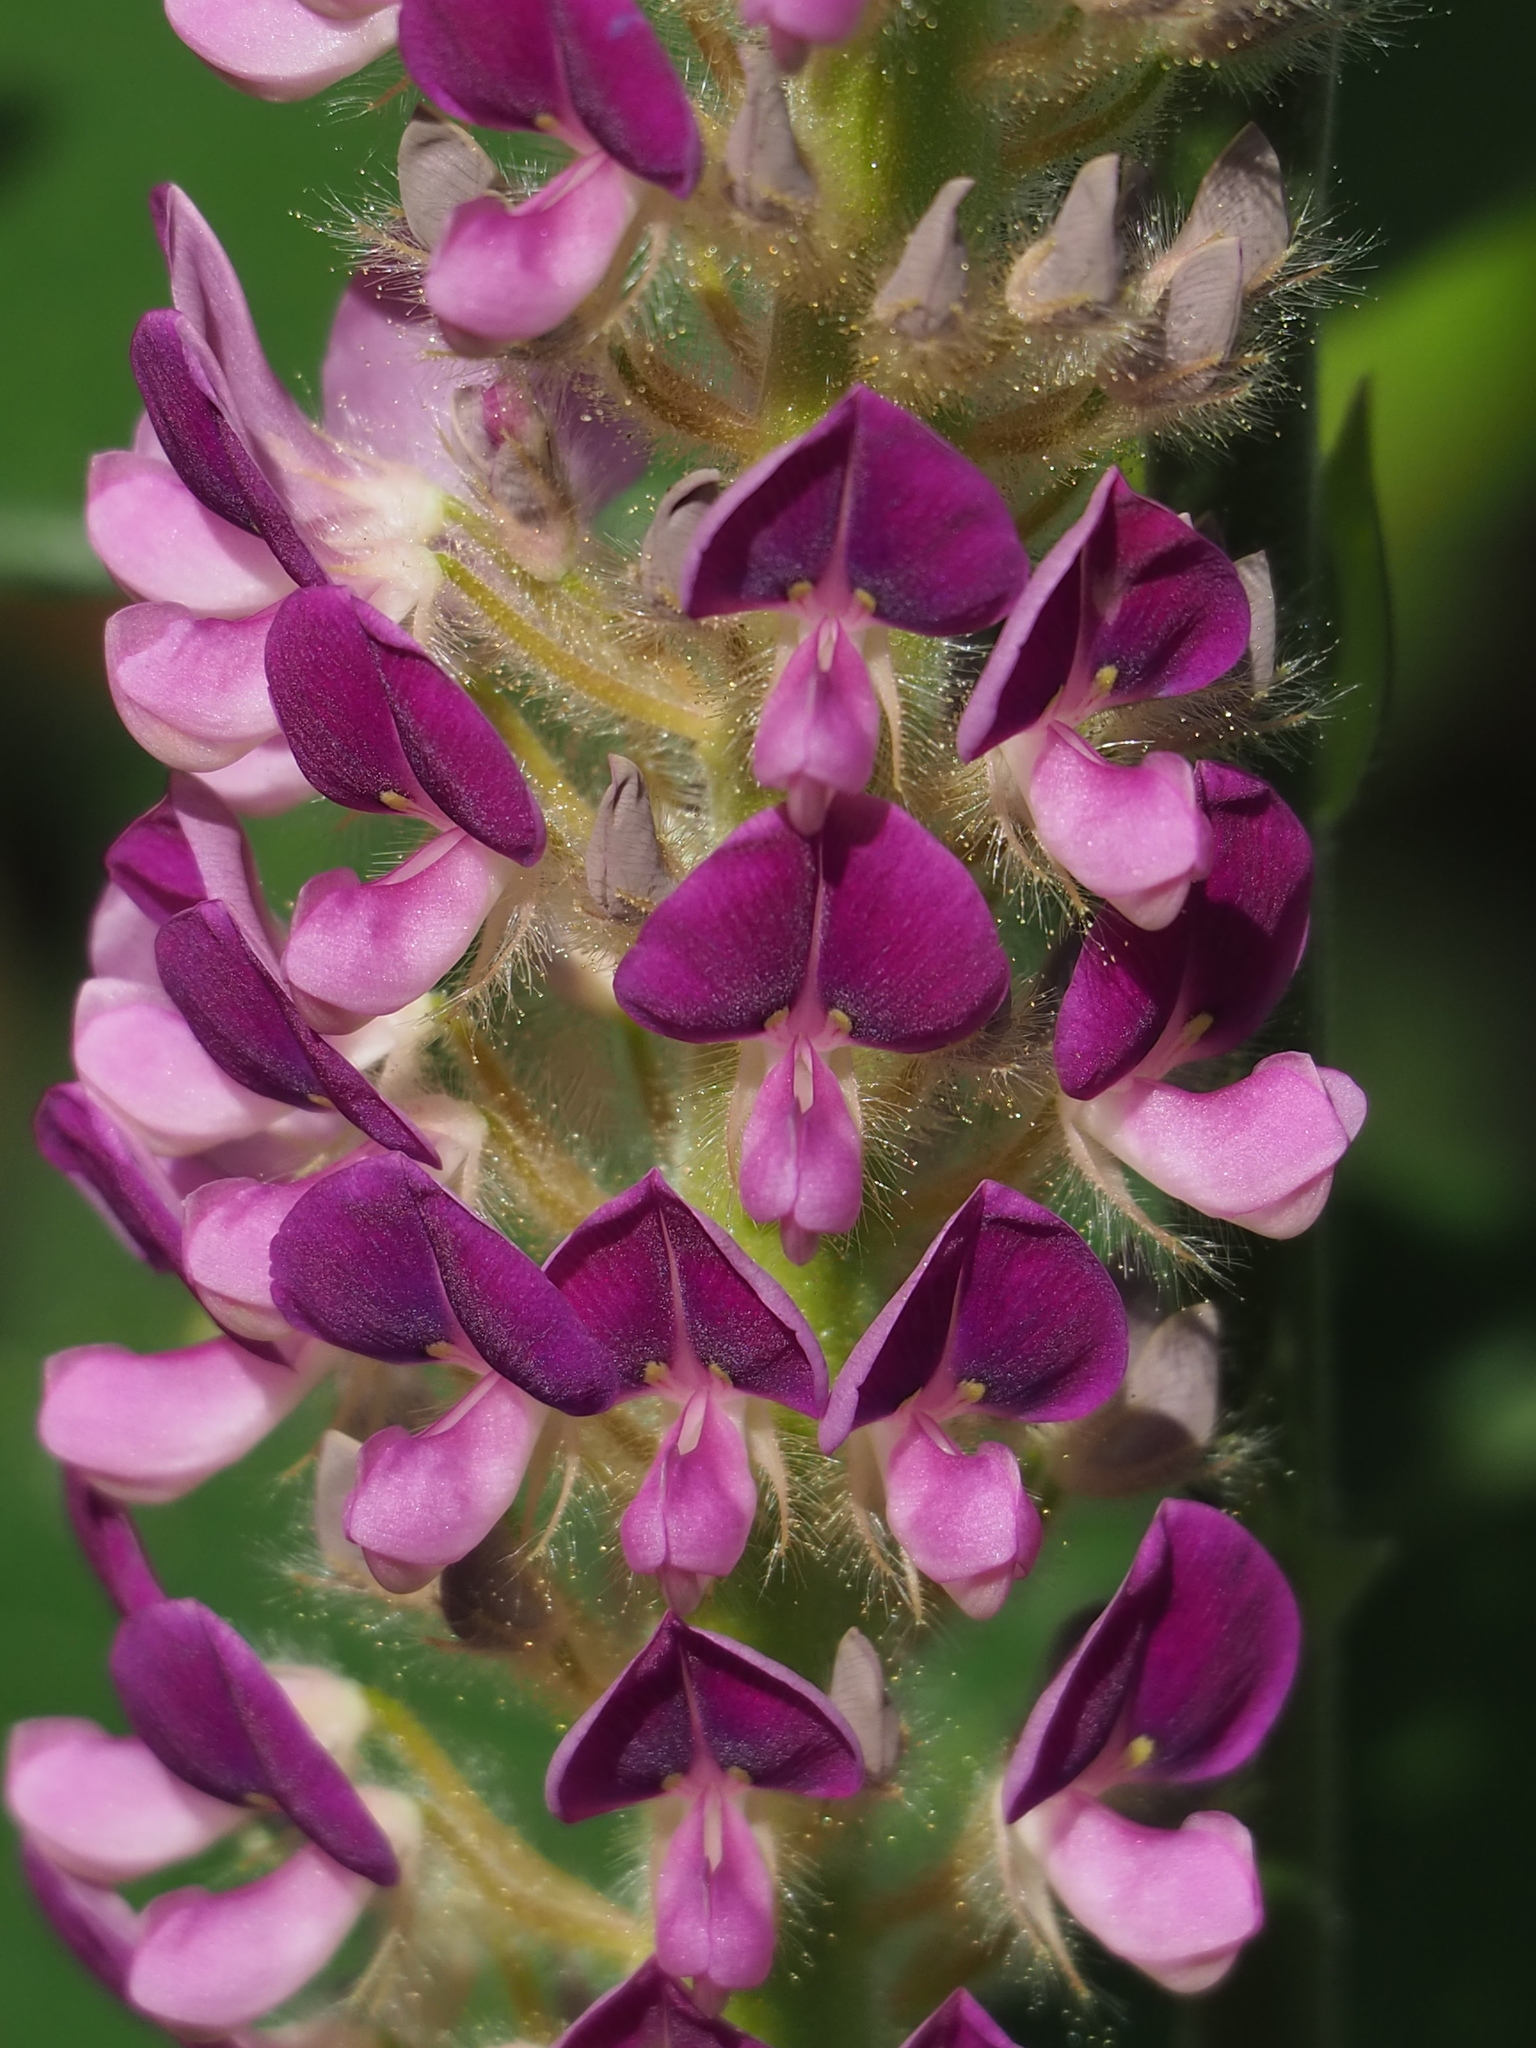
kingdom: Plantae
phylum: Tracheophyta
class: Magnoliopsida
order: Fabales
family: Fabaceae
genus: Uraria
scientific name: Uraria crinita
